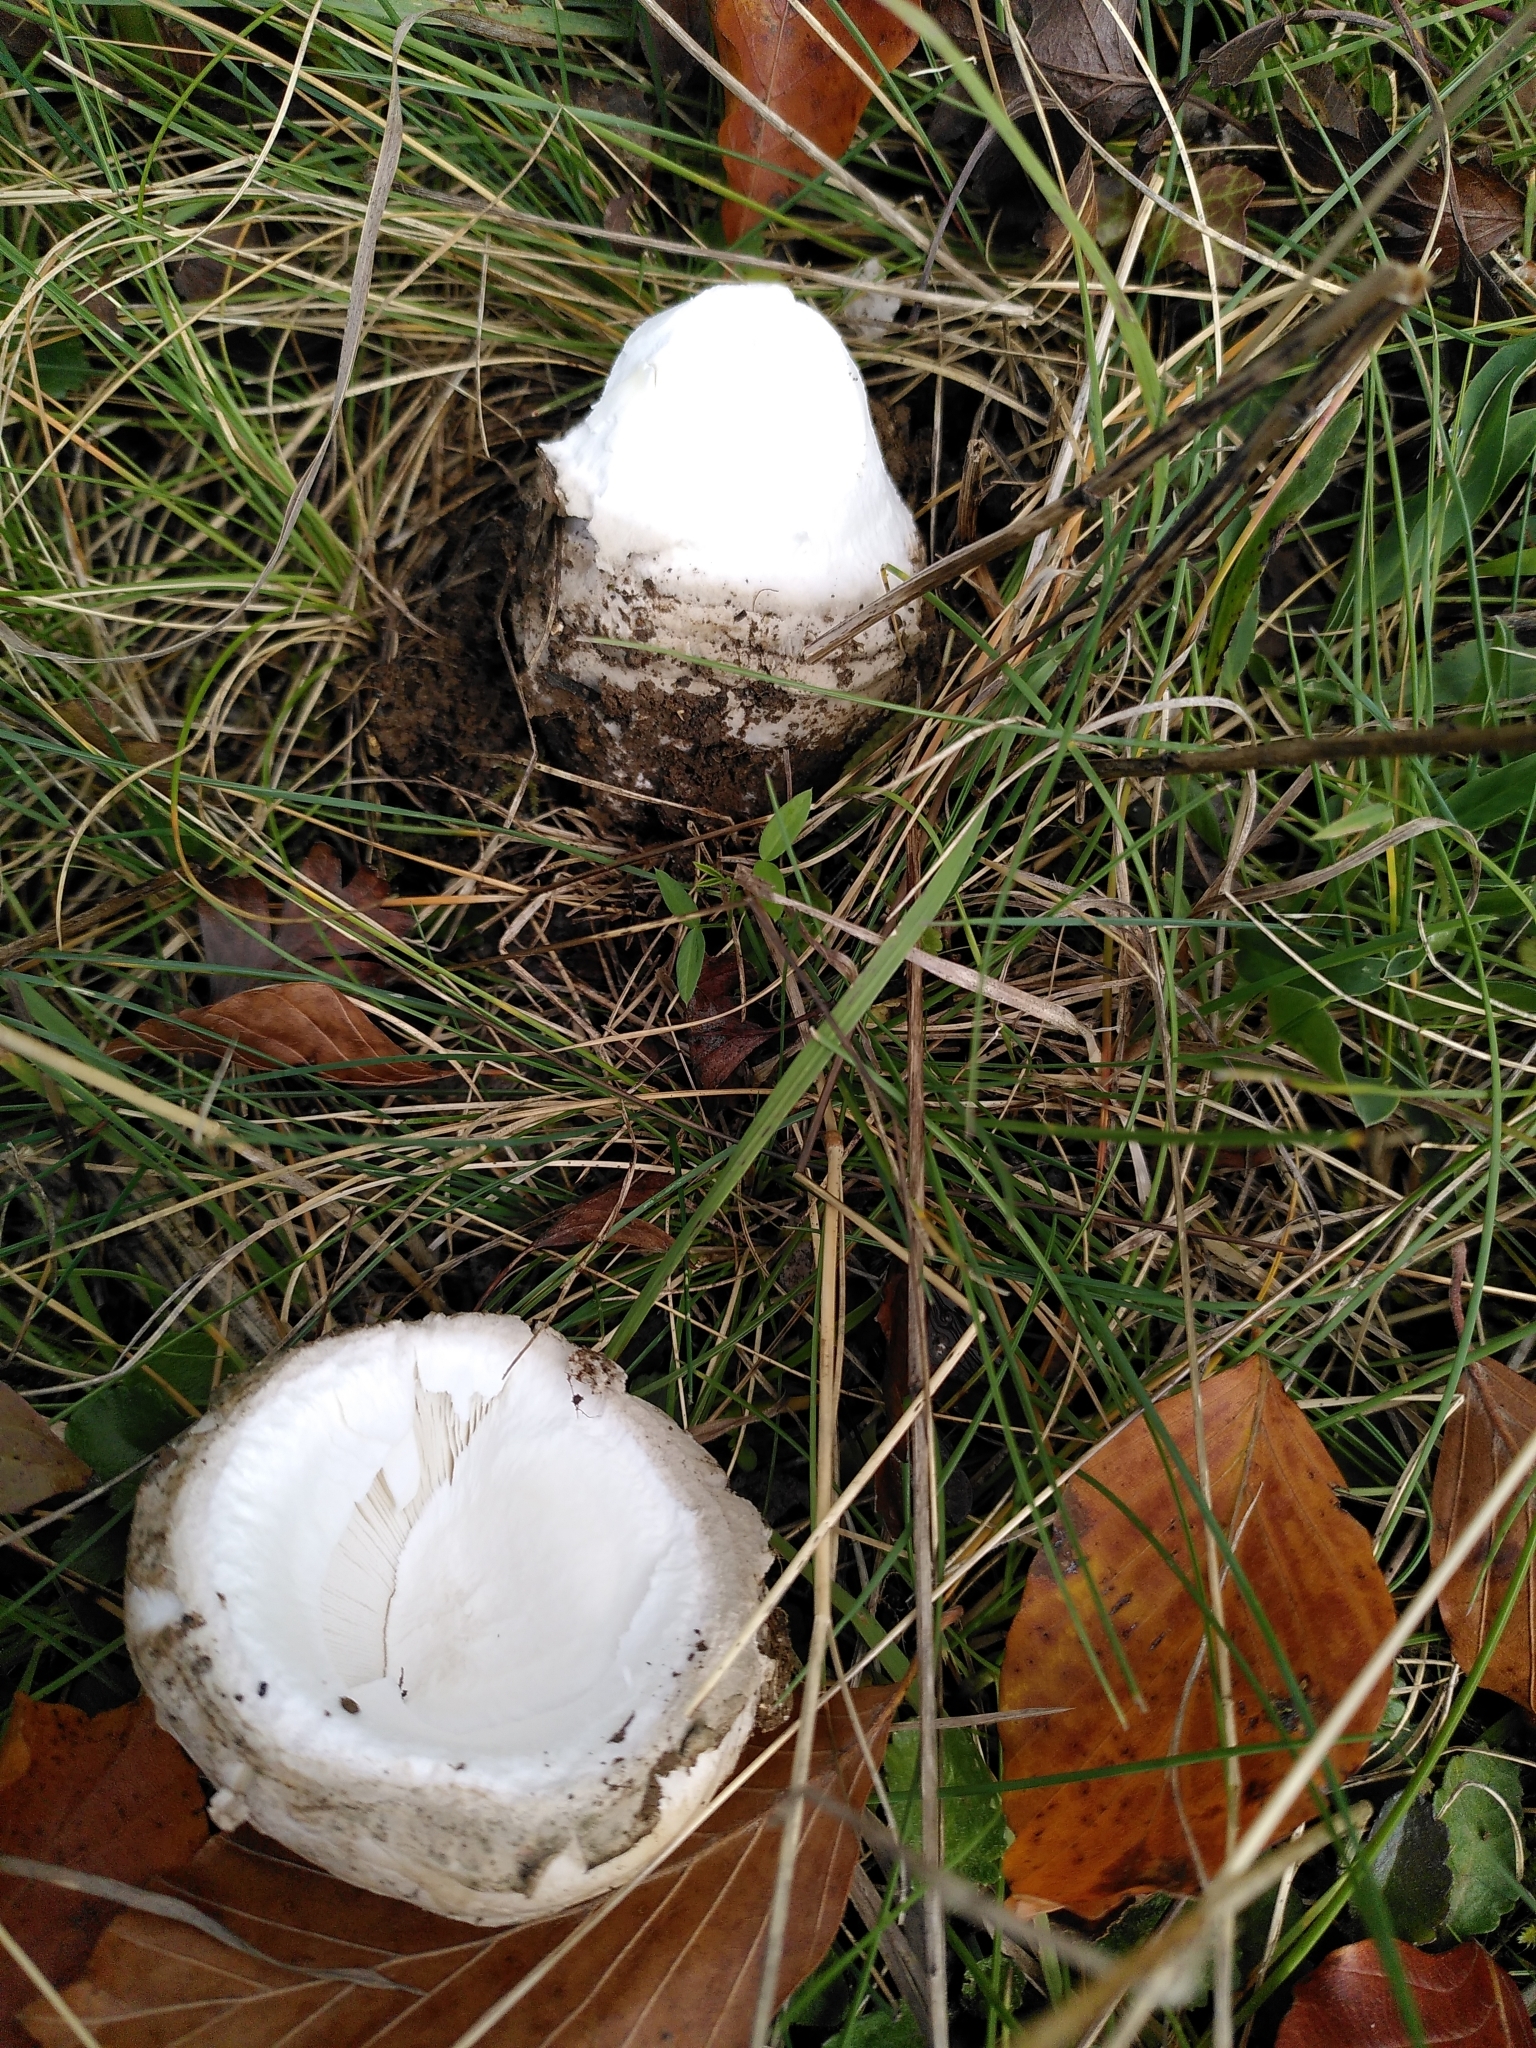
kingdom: Fungi
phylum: Basidiomycota
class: Agaricomycetes
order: Agaricales
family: Amanitaceae
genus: Amanita
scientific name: Amanita strobiliformis
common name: Warted amanita
